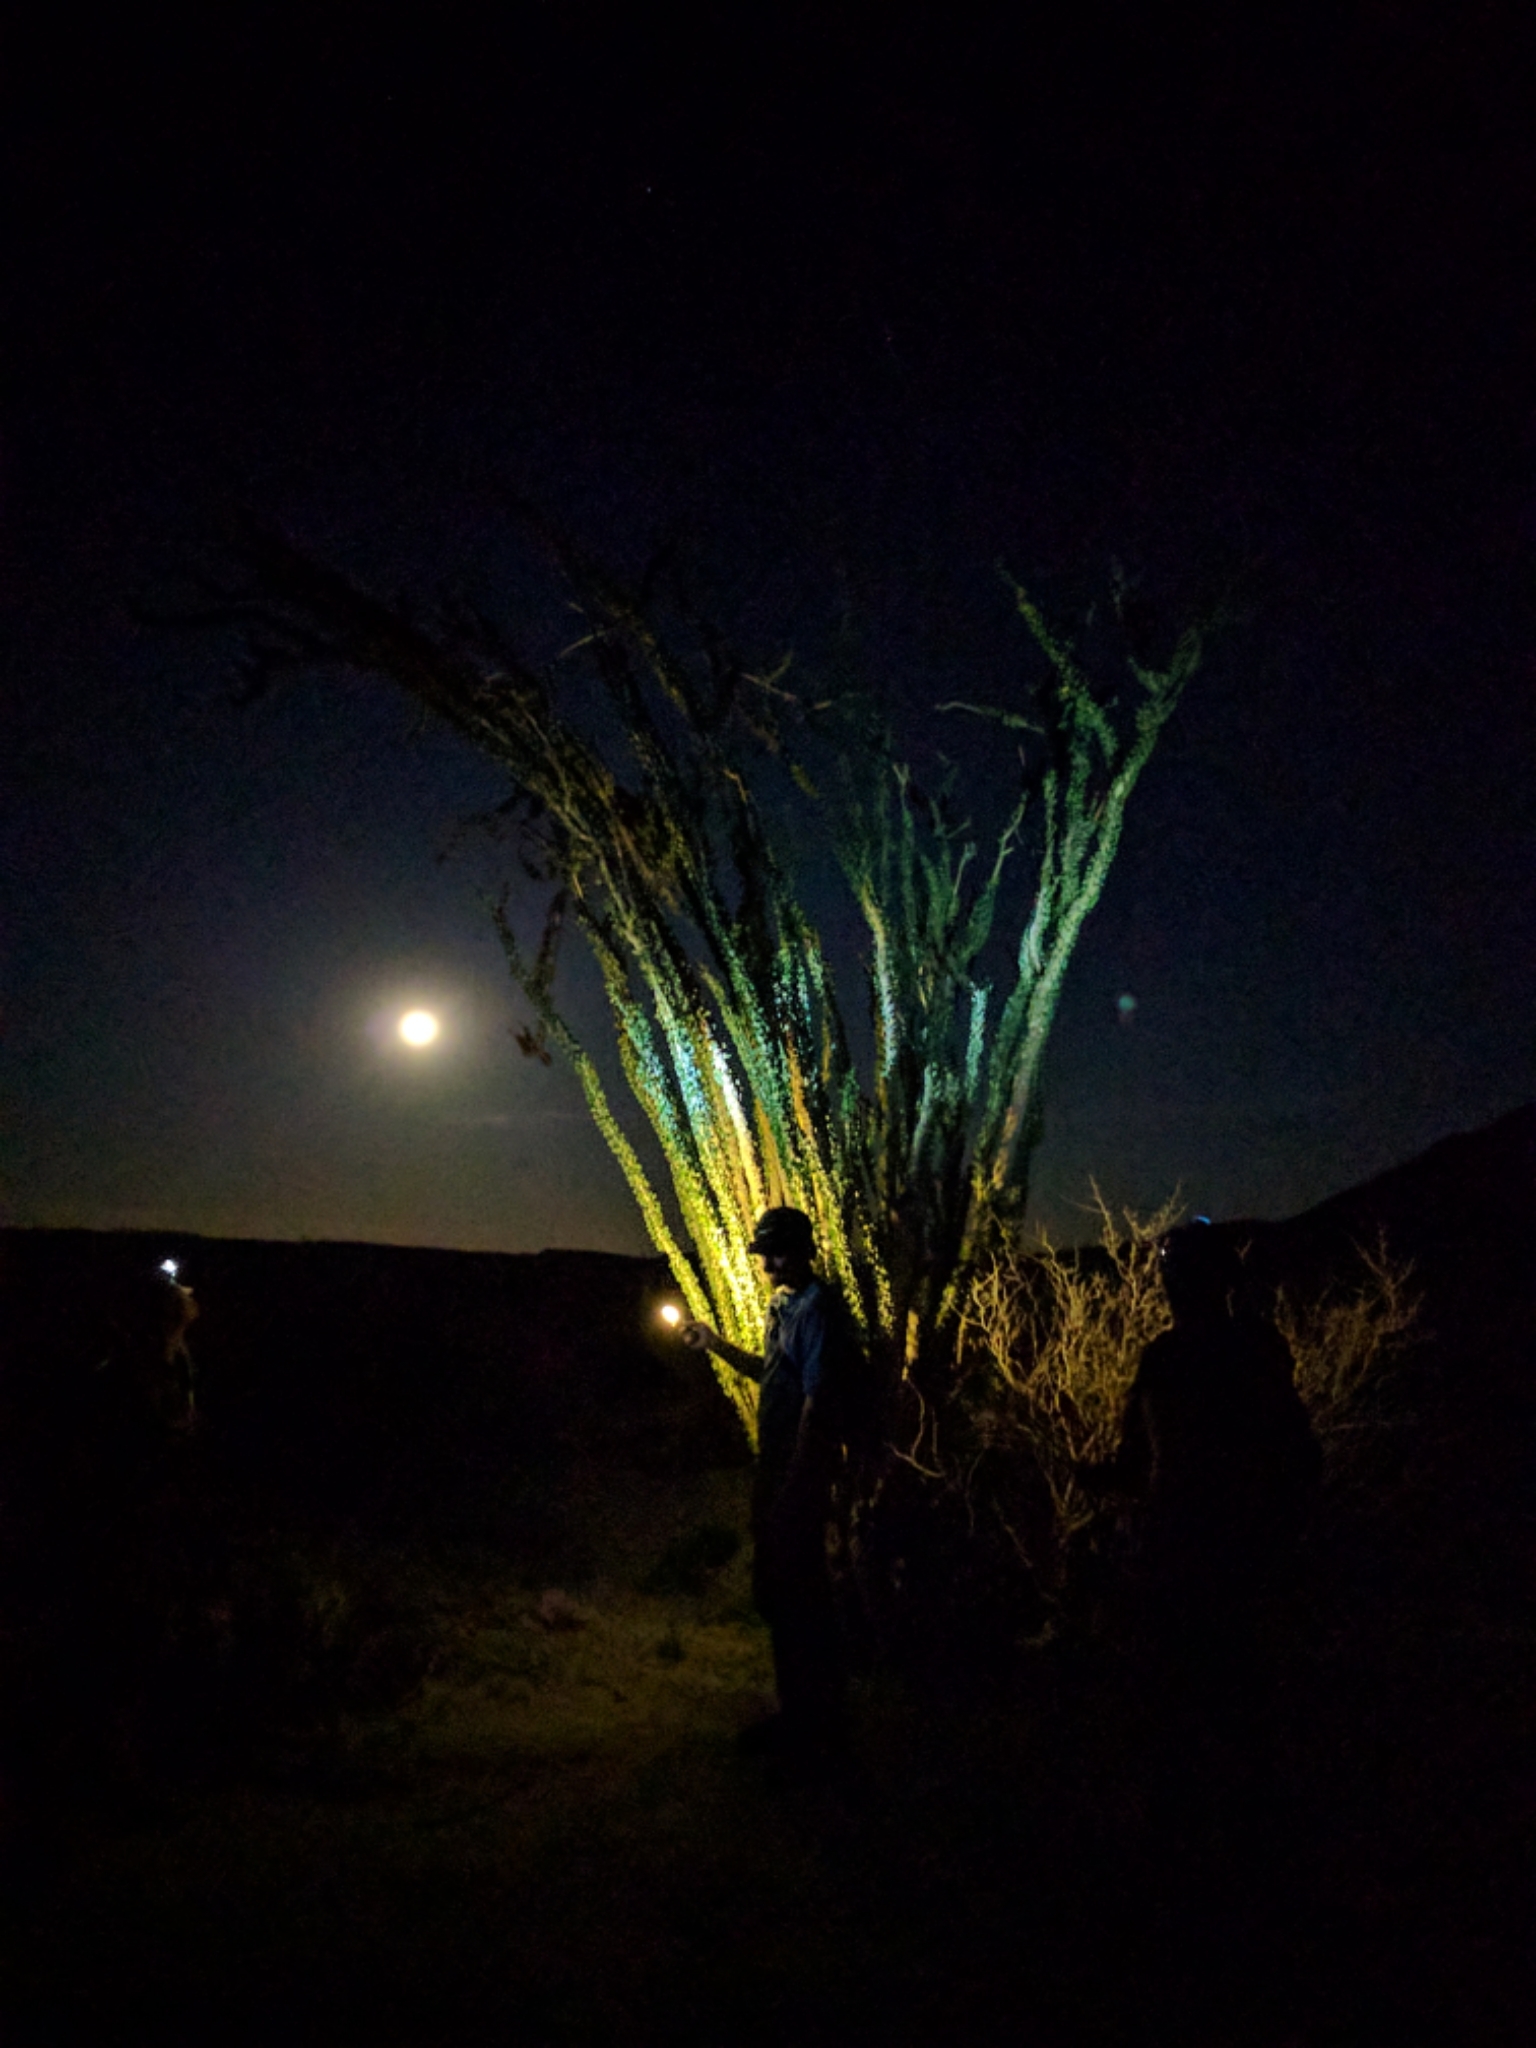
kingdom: Plantae
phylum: Tracheophyta
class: Magnoliopsida
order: Ericales
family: Fouquieriaceae
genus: Fouquieria
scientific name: Fouquieria splendens
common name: Vine-cactus
